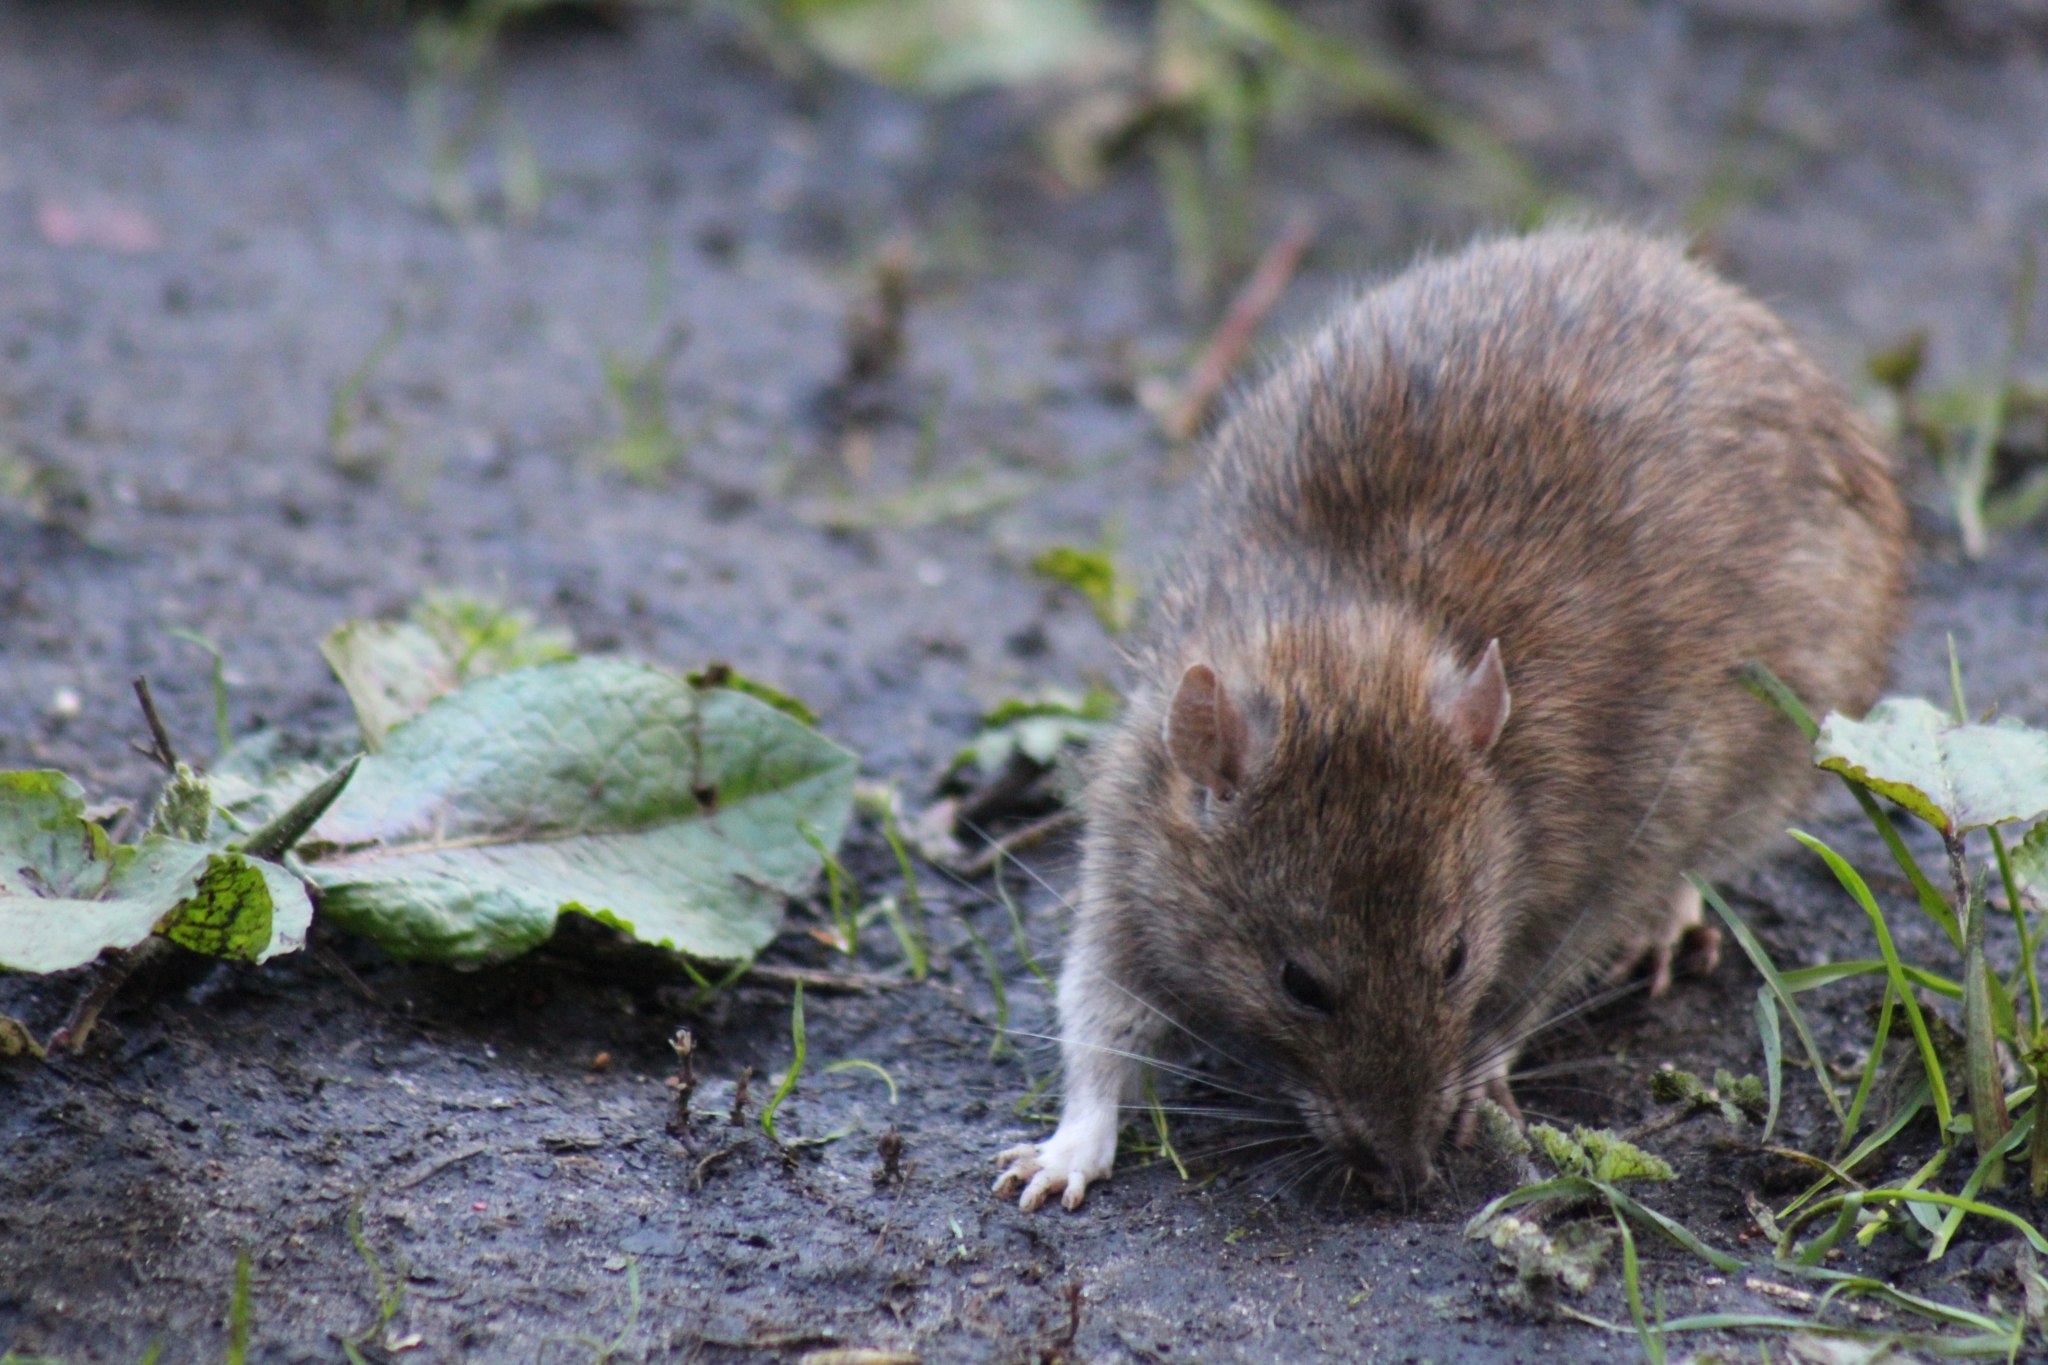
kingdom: Animalia
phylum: Chordata
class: Mammalia
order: Rodentia
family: Muridae
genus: Rattus
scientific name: Rattus norvegicus
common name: Brown rat
